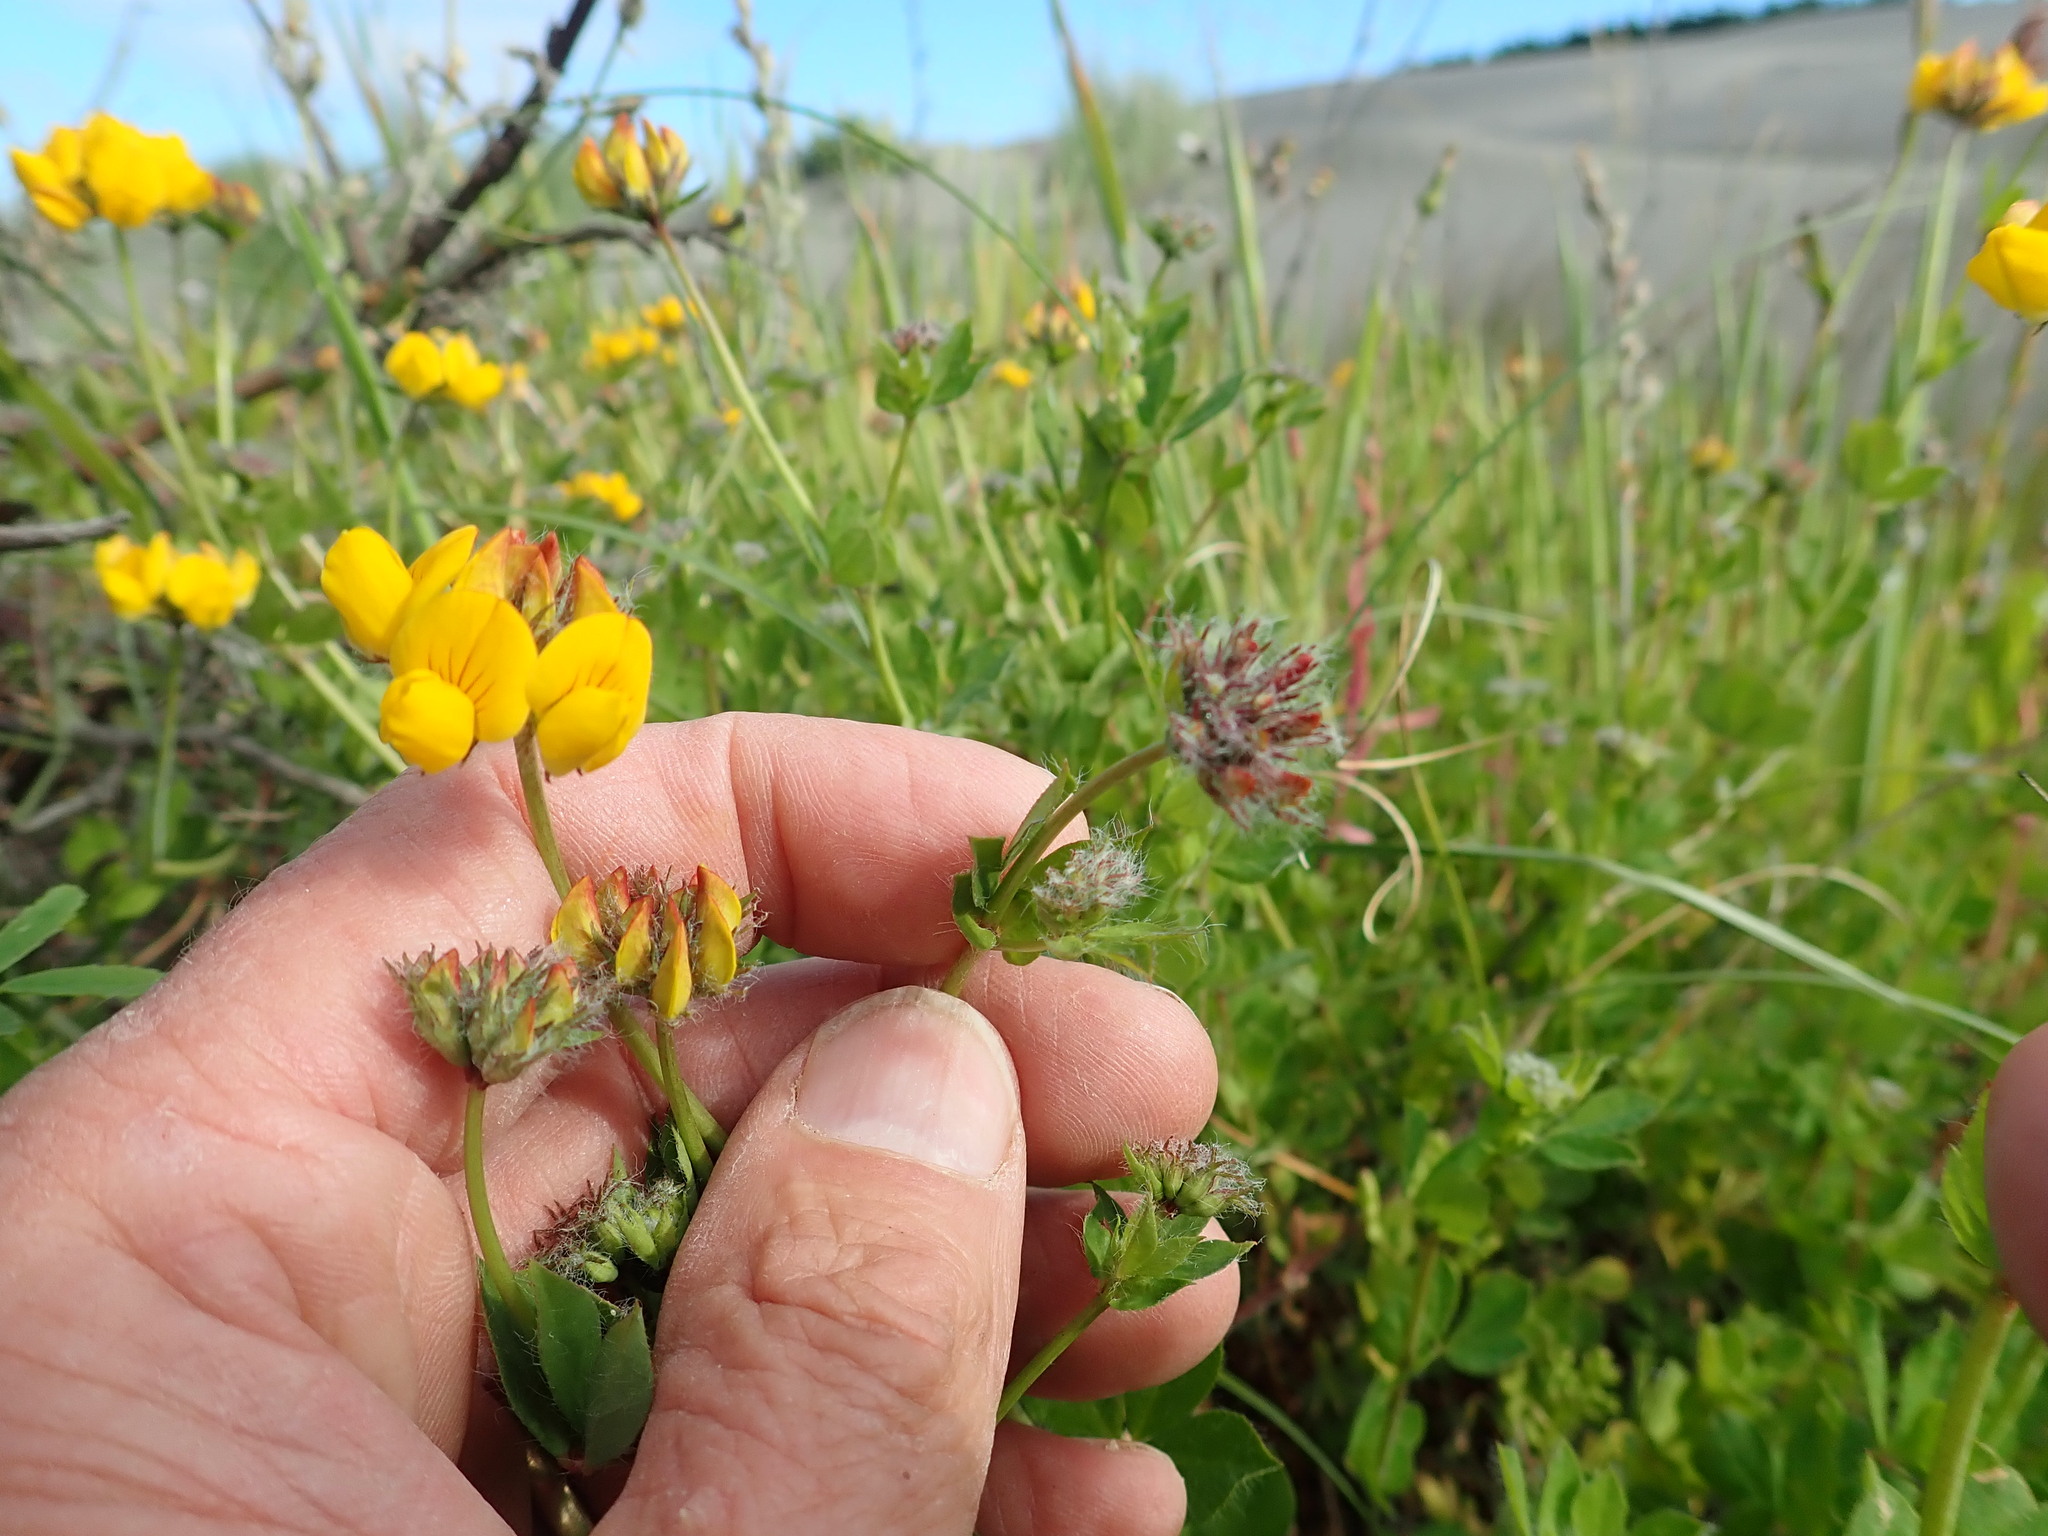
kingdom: Plantae
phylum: Tracheophyta
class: Magnoliopsida
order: Fabales
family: Fabaceae
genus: Lotus
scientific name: Lotus pedunculatus
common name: Greater birdsfoot-trefoil
